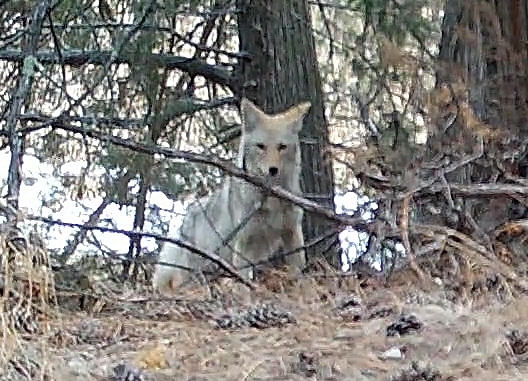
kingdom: Animalia
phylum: Chordata
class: Mammalia
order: Carnivora
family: Canidae
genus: Canis
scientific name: Canis latrans
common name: Coyote
